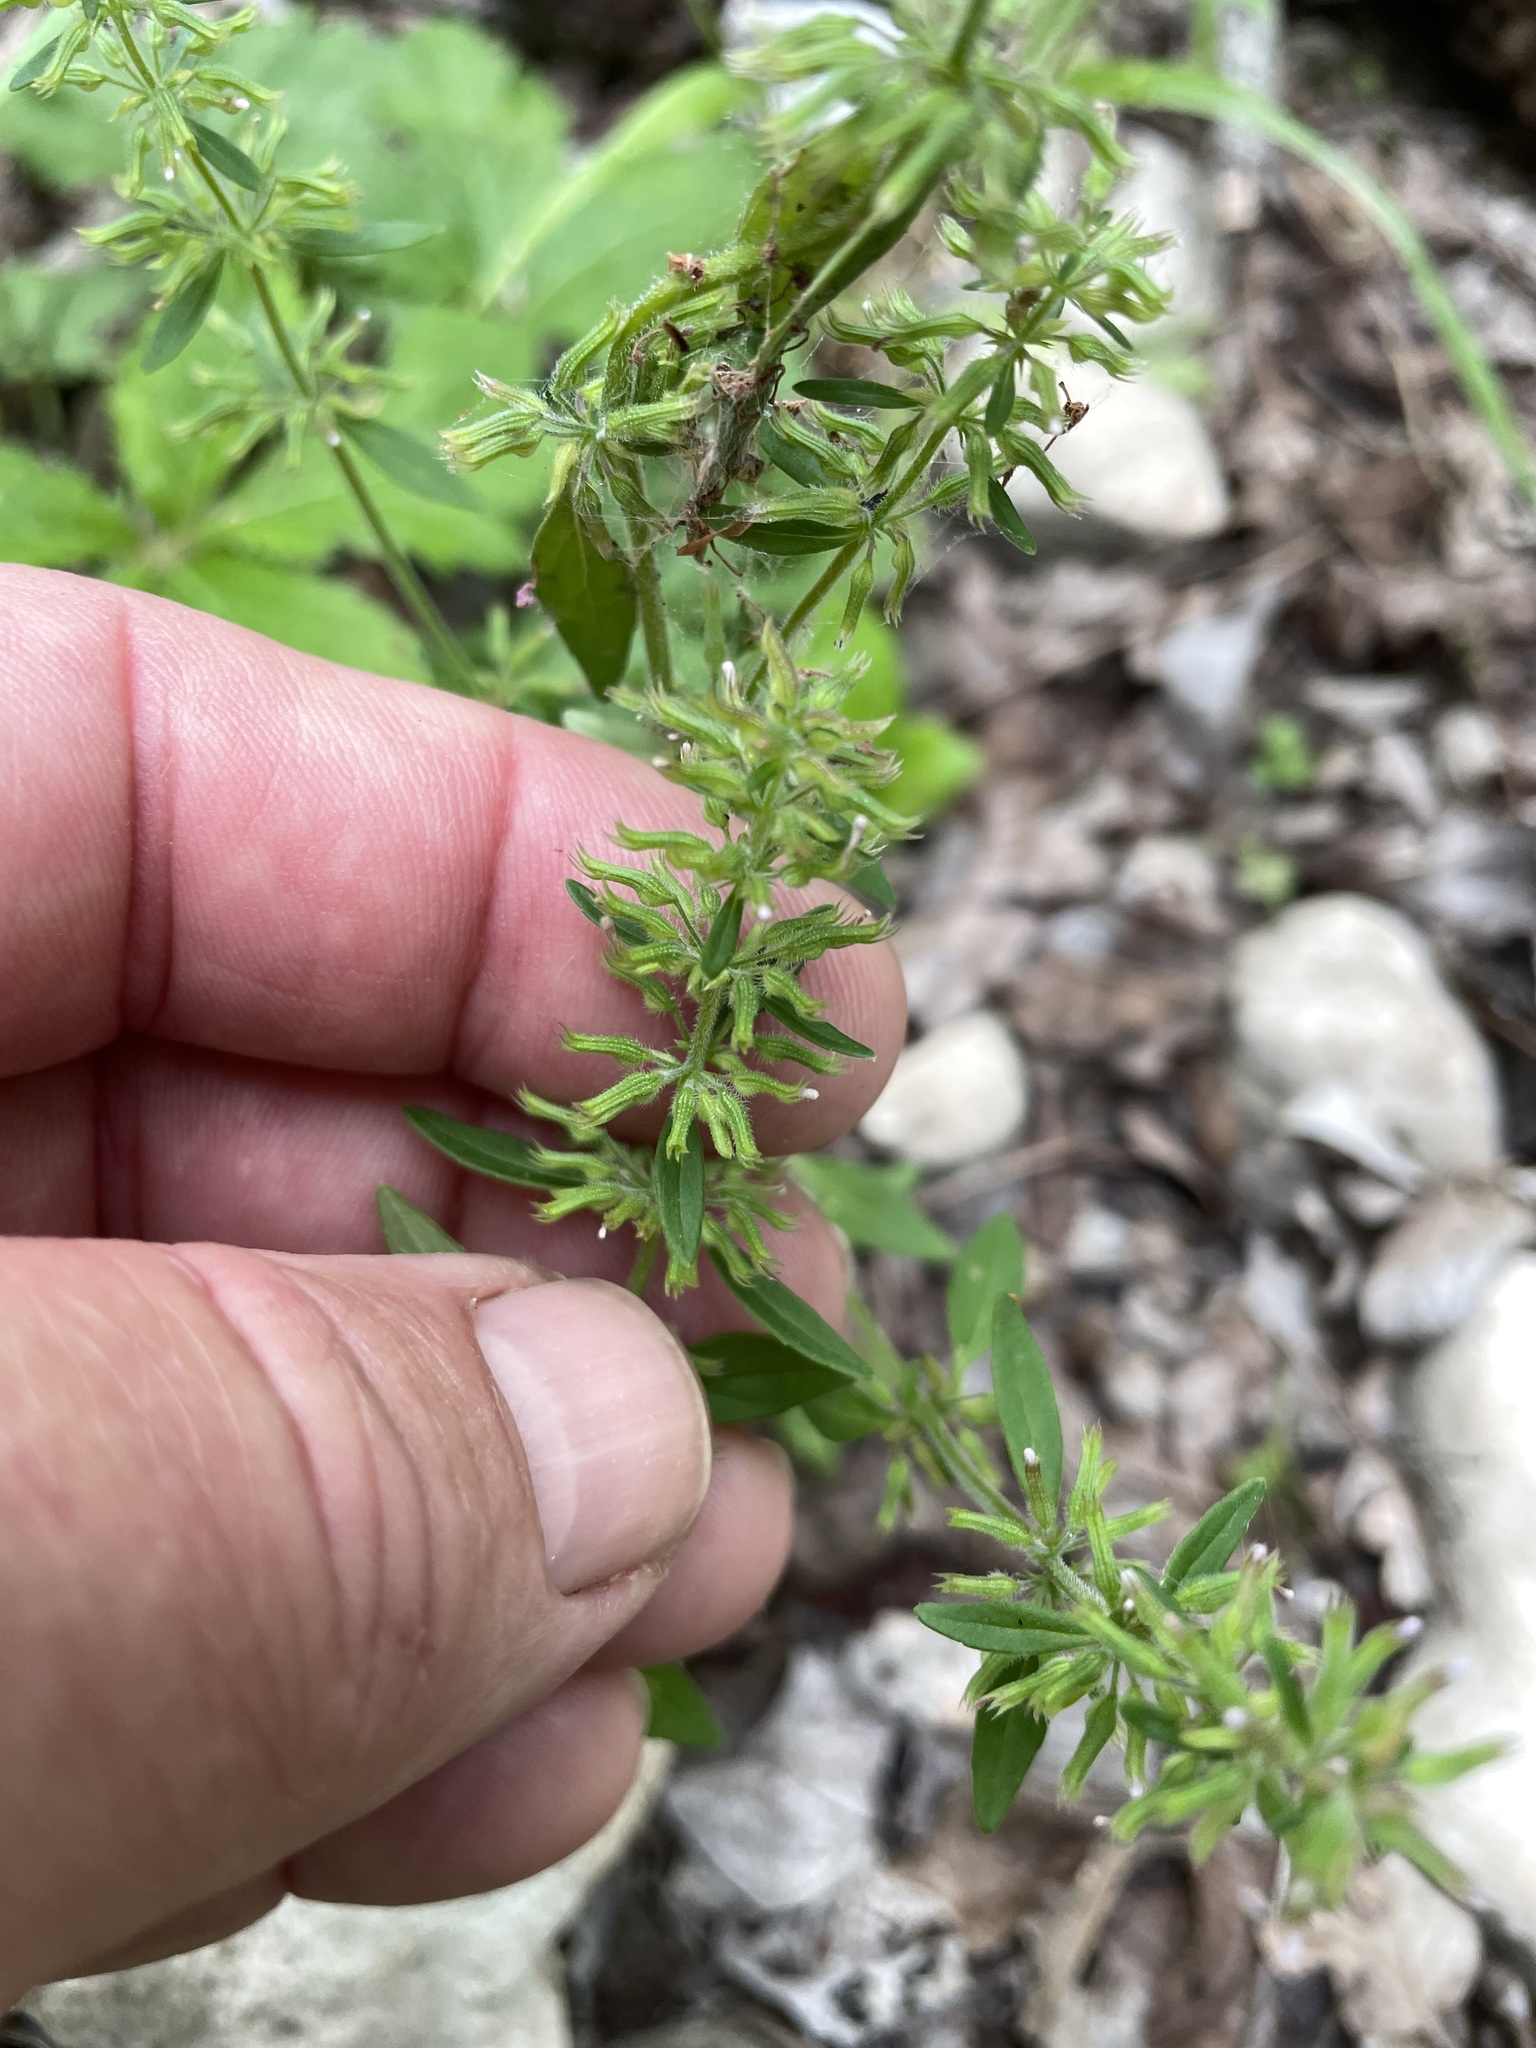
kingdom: Plantae
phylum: Tracheophyta
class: Magnoliopsida
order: Lamiales
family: Lamiaceae
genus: Hedeoma
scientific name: Hedeoma acinoides
